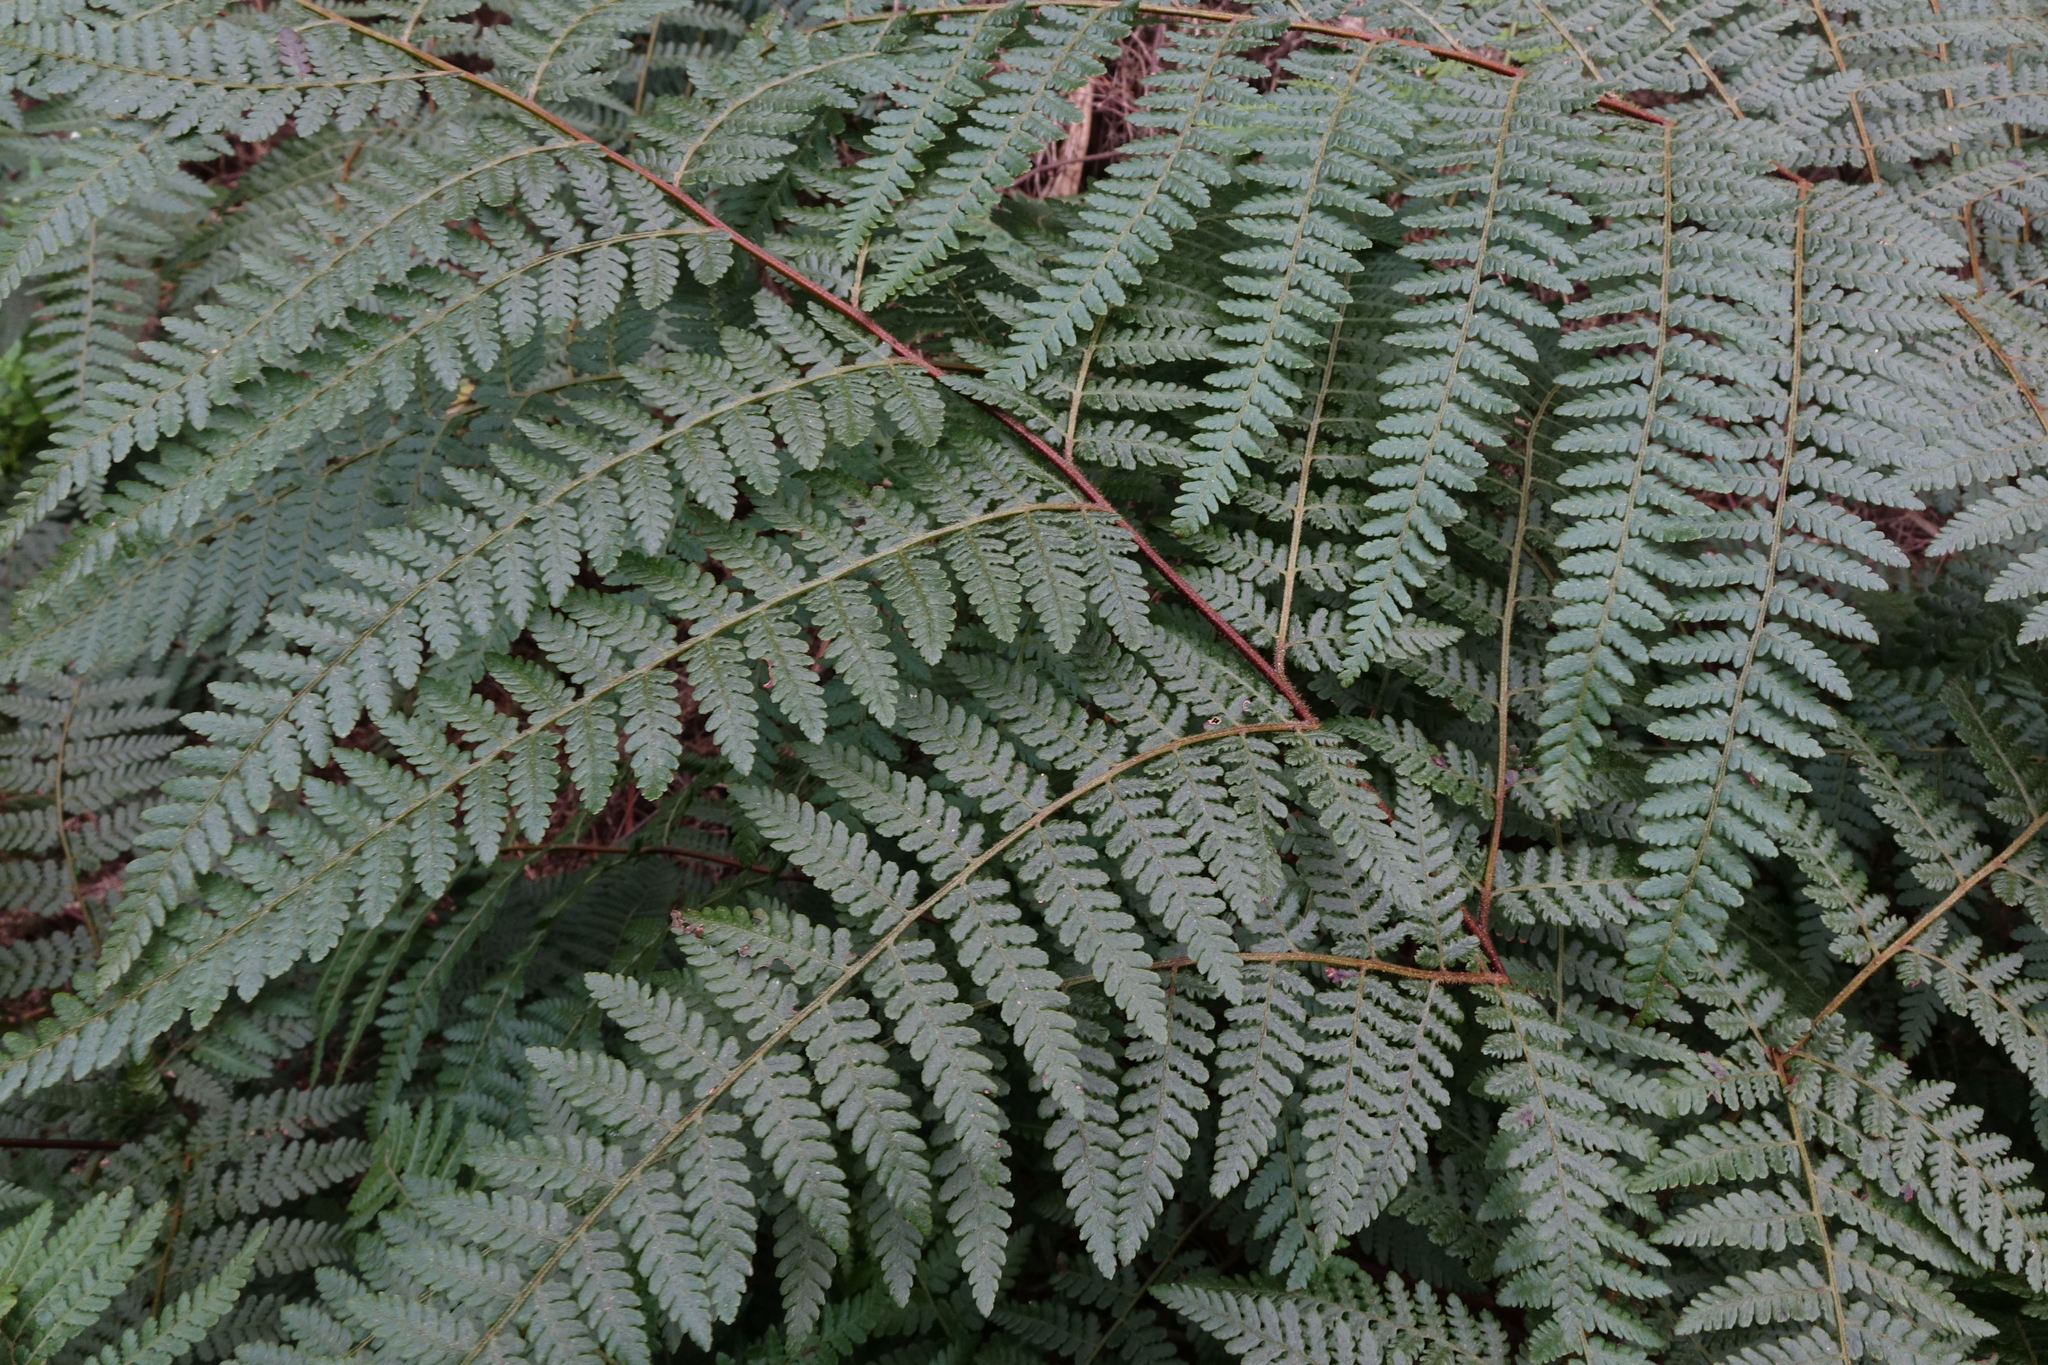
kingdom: Plantae
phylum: Tracheophyta
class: Polypodiopsida
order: Polypodiales
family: Dennstaedtiaceae
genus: Hypolepis
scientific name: Hypolepis ambigua
